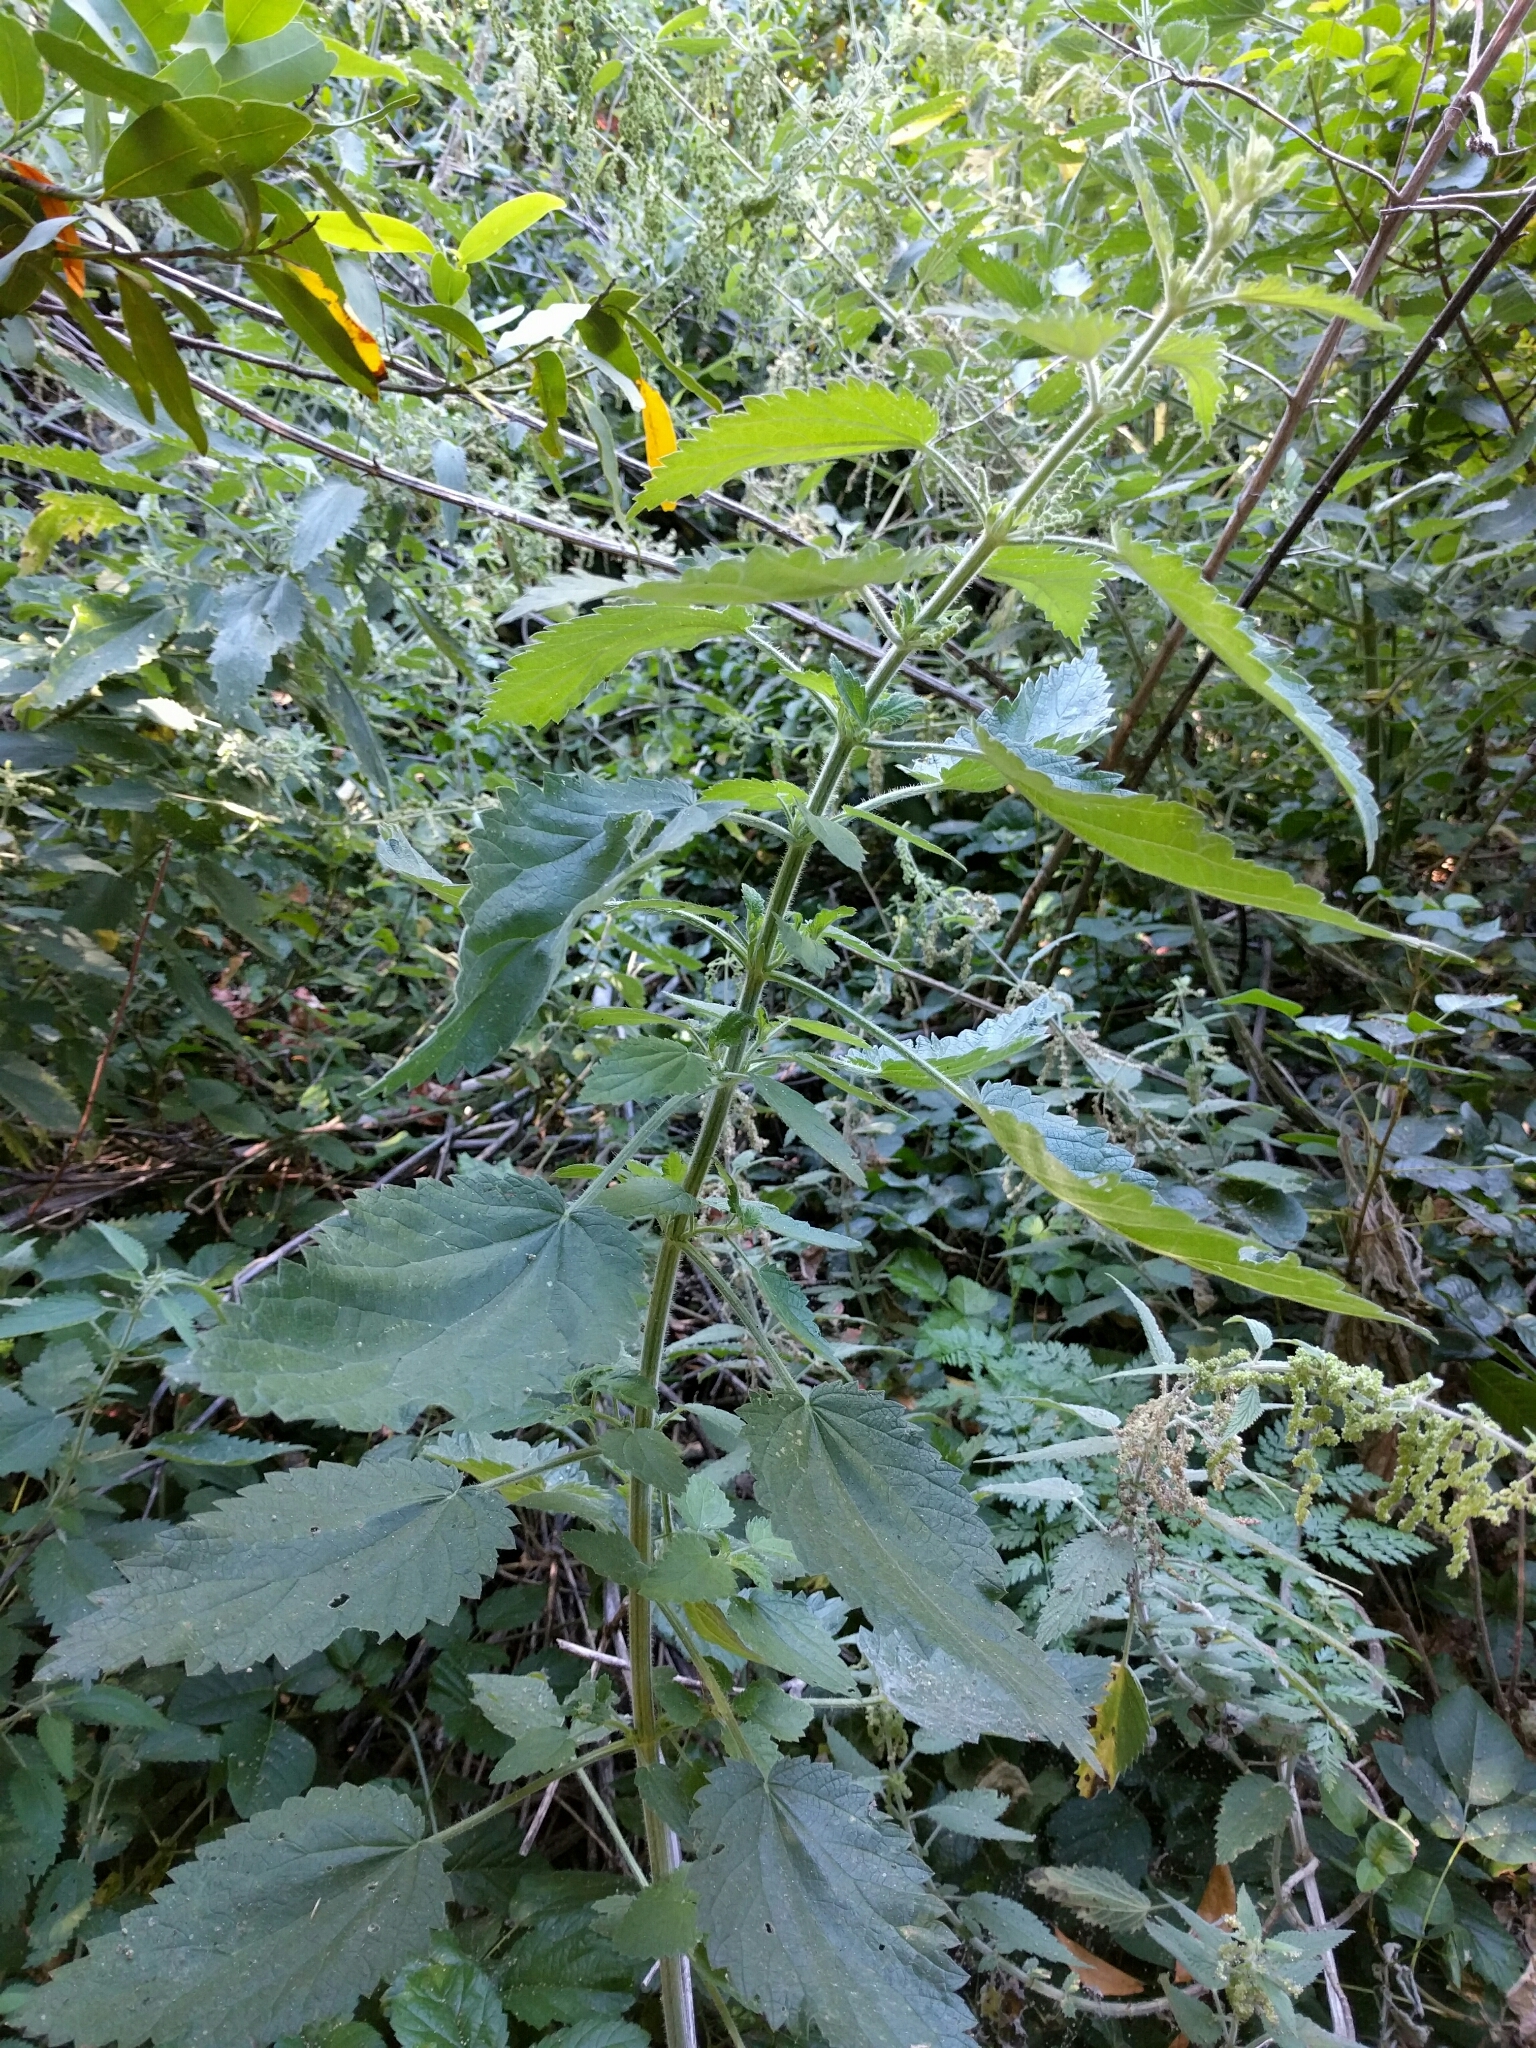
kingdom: Plantae
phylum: Tracheophyta
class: Magnoliopsida
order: Rosales
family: Urticaceae
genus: Urtica
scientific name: Urtica dioica
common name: Common nettle
